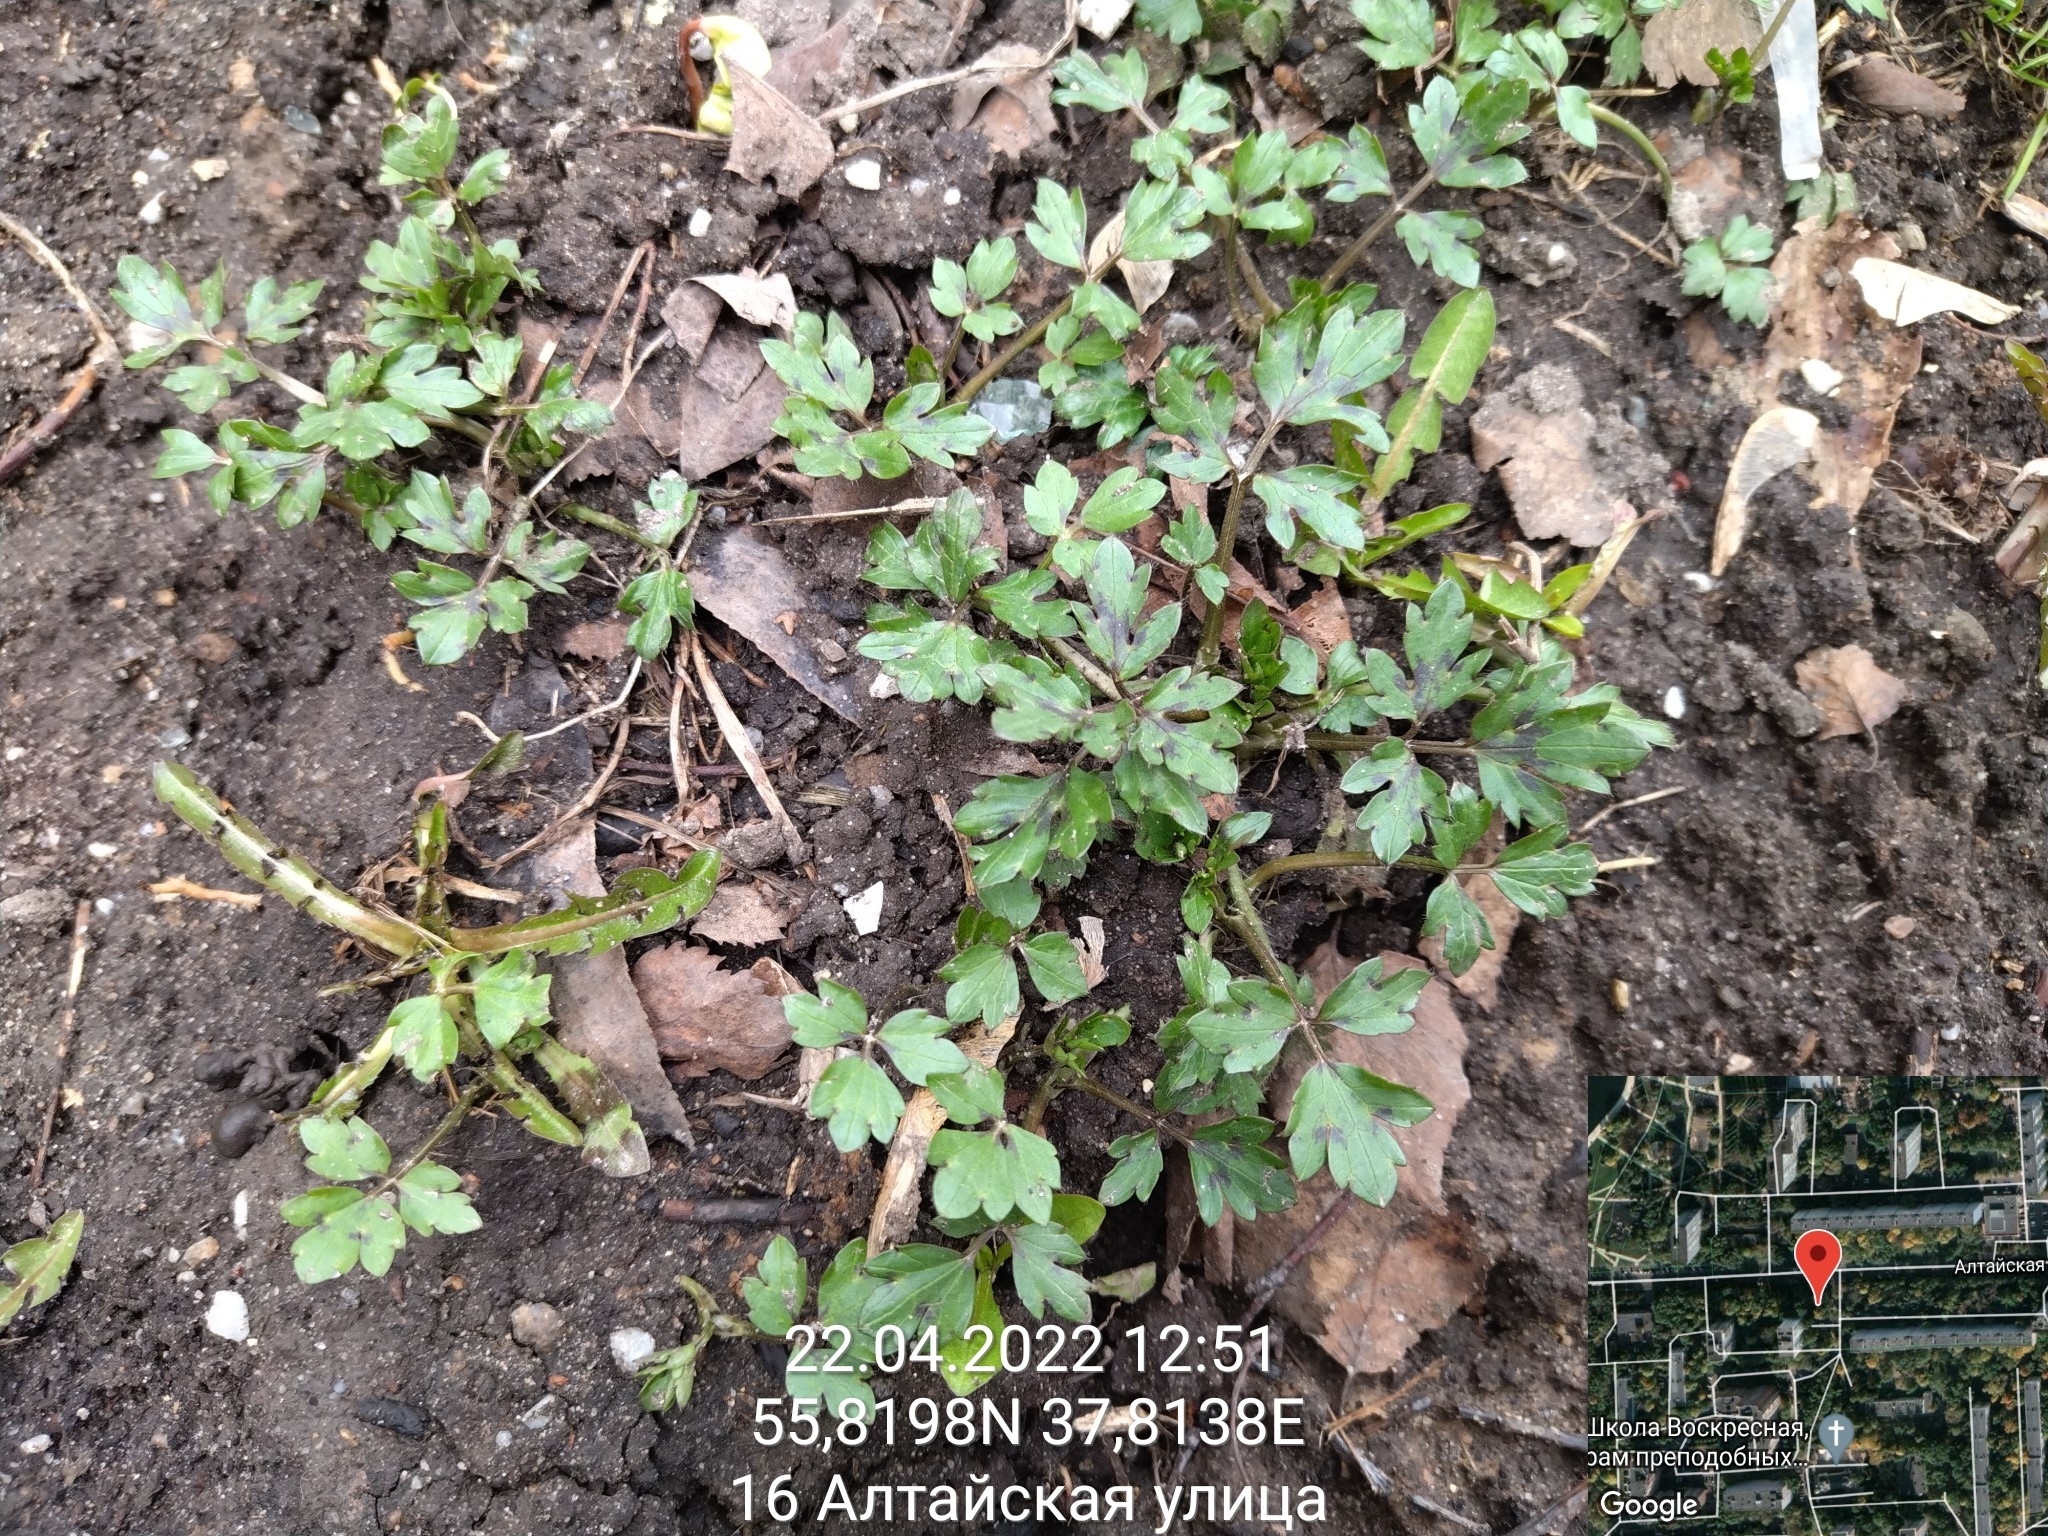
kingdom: Plantae
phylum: Tracheophyta
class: Magnoliopsida
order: Ranunculales
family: Ranunculaceae
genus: Ranunculus
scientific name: Ranunculus repens
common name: Creeping buttercup
